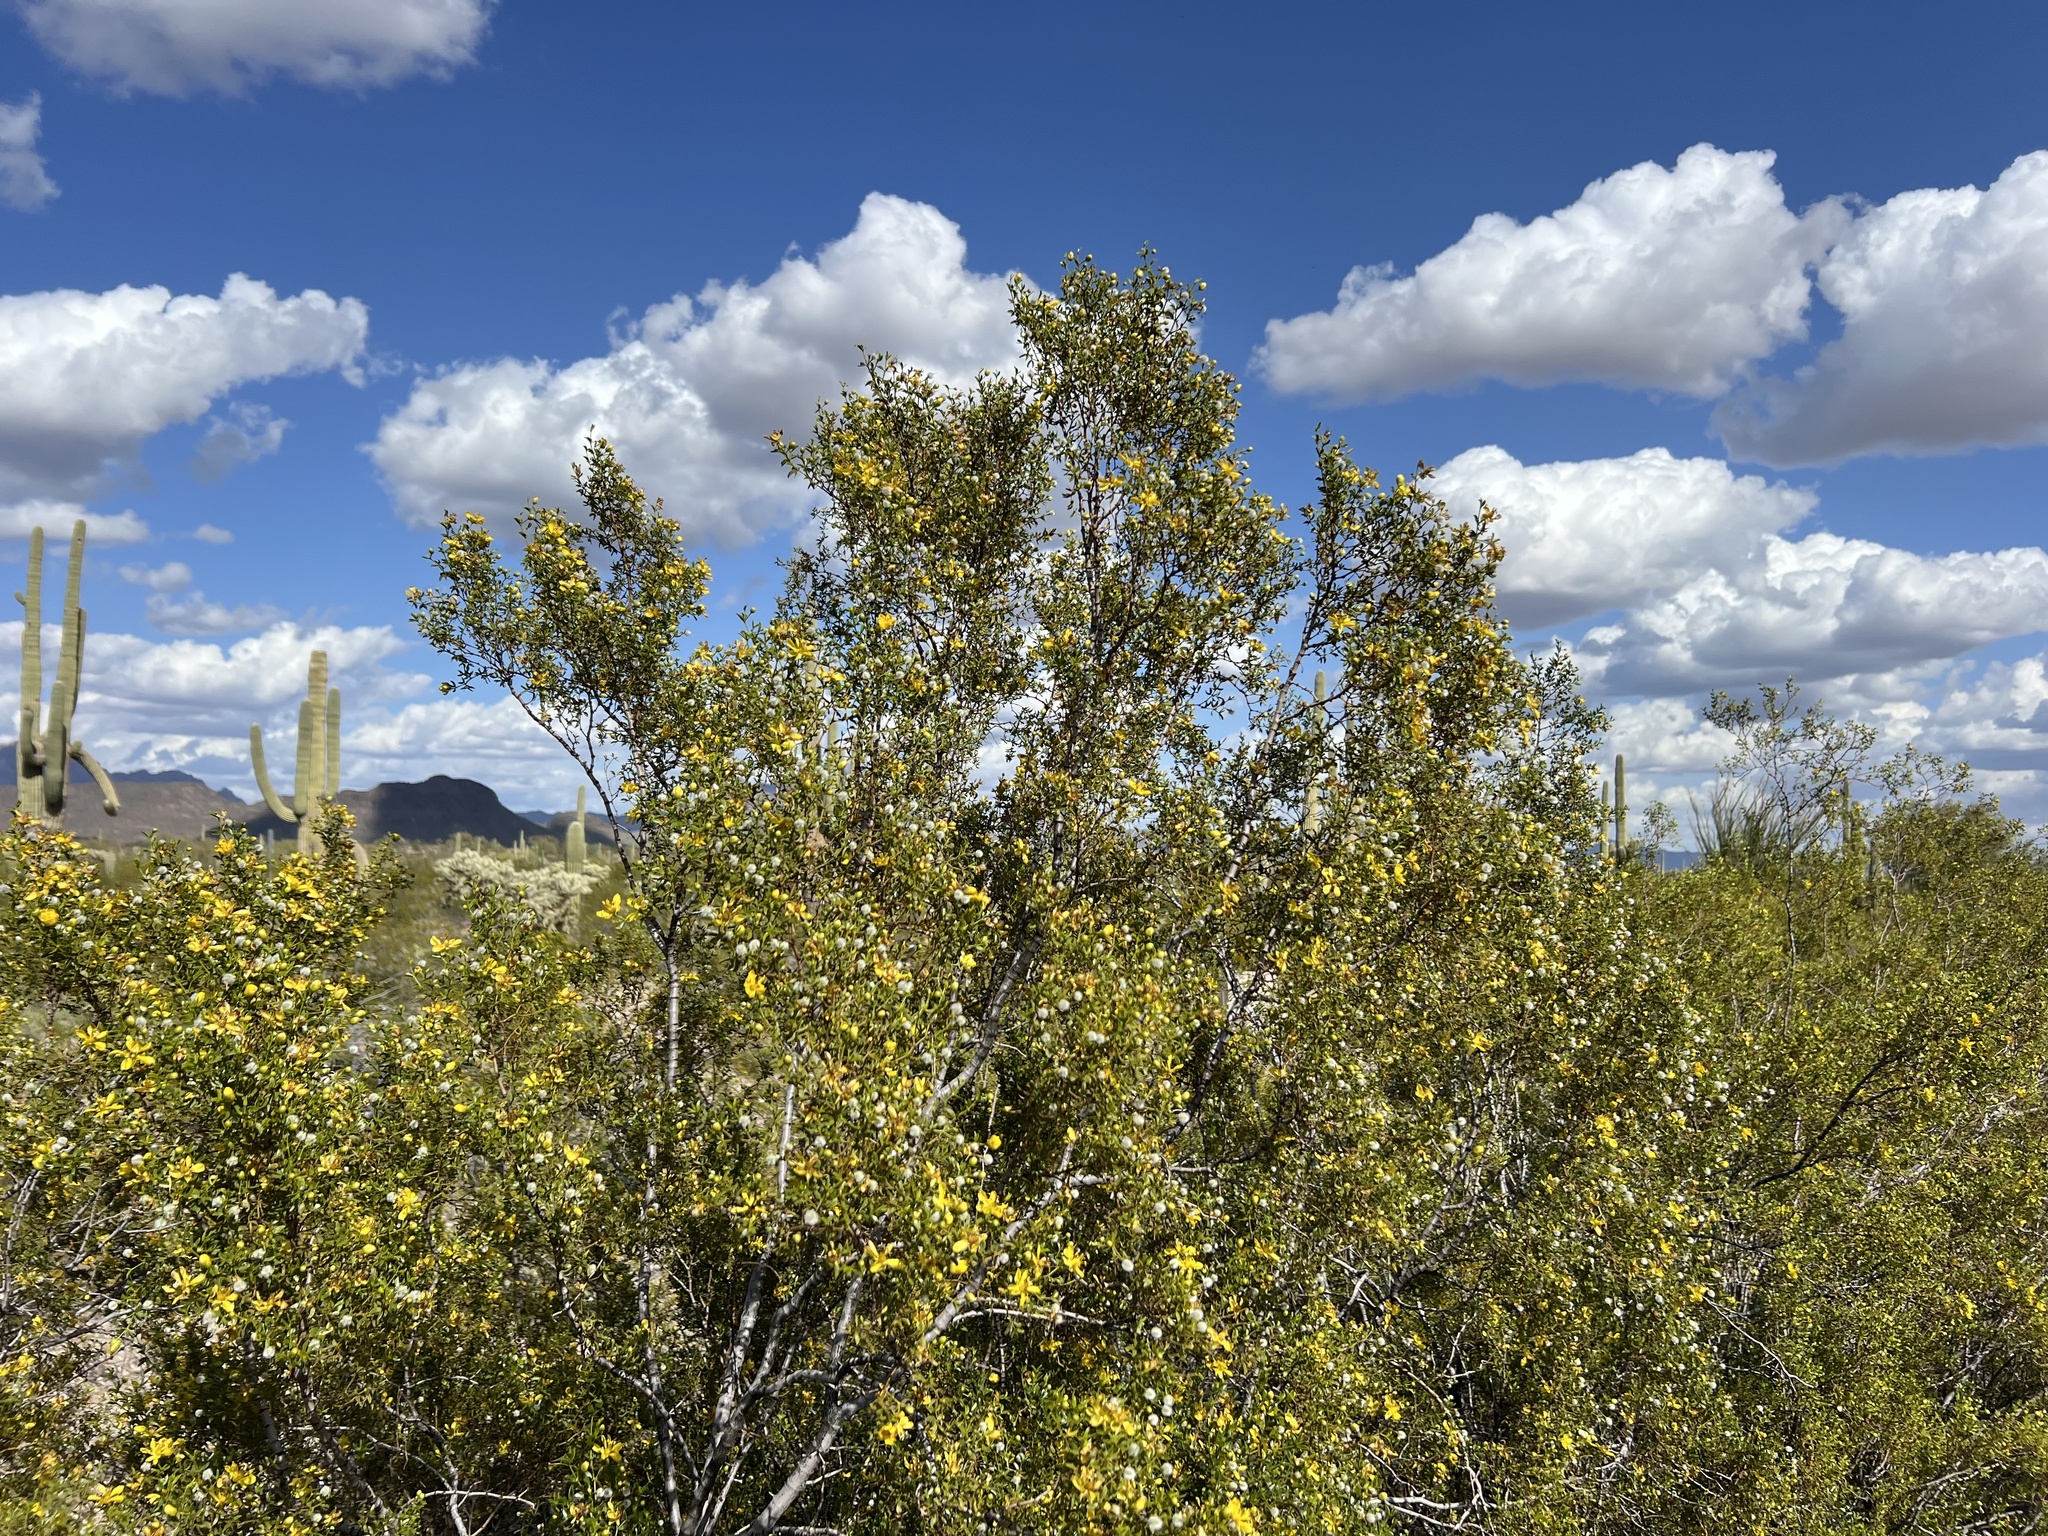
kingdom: Plantae
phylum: Tracheophyta
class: Magnoliopsida
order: Zygophyllales
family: Zygophyllaceae
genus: Larrea
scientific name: Larrea tridentata
